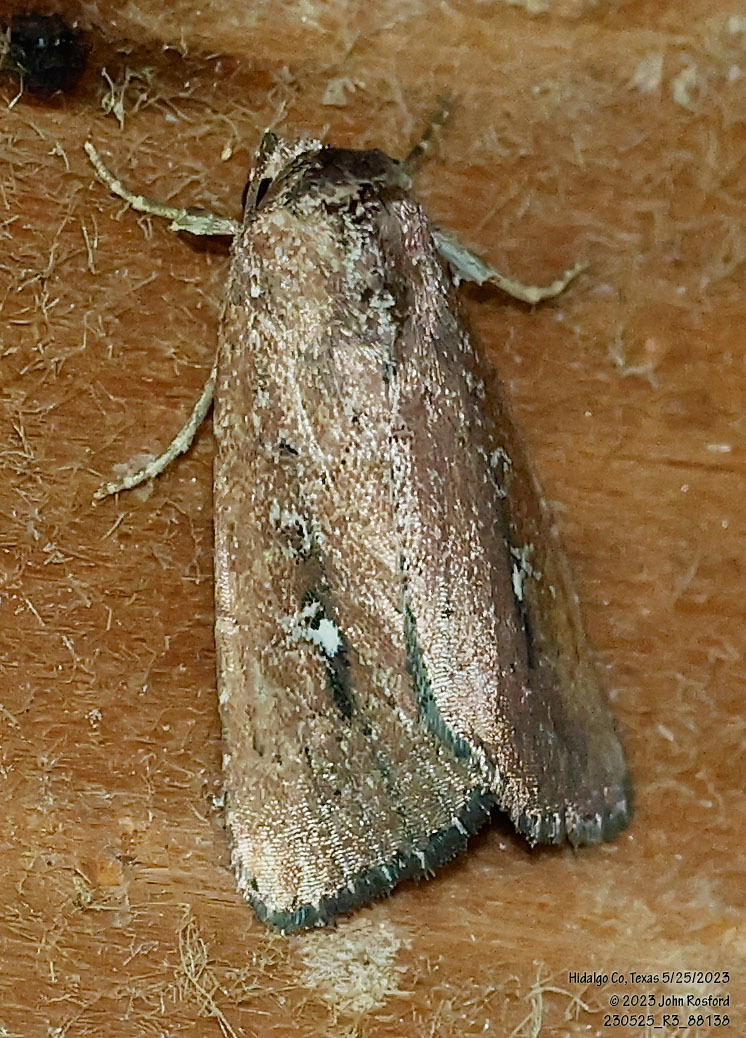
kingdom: Animalia
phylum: Arthropoda
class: Insecta
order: Lepidoptera
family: Noctuidae
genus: Condica
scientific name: Condica videns
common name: White-dotted groundling
